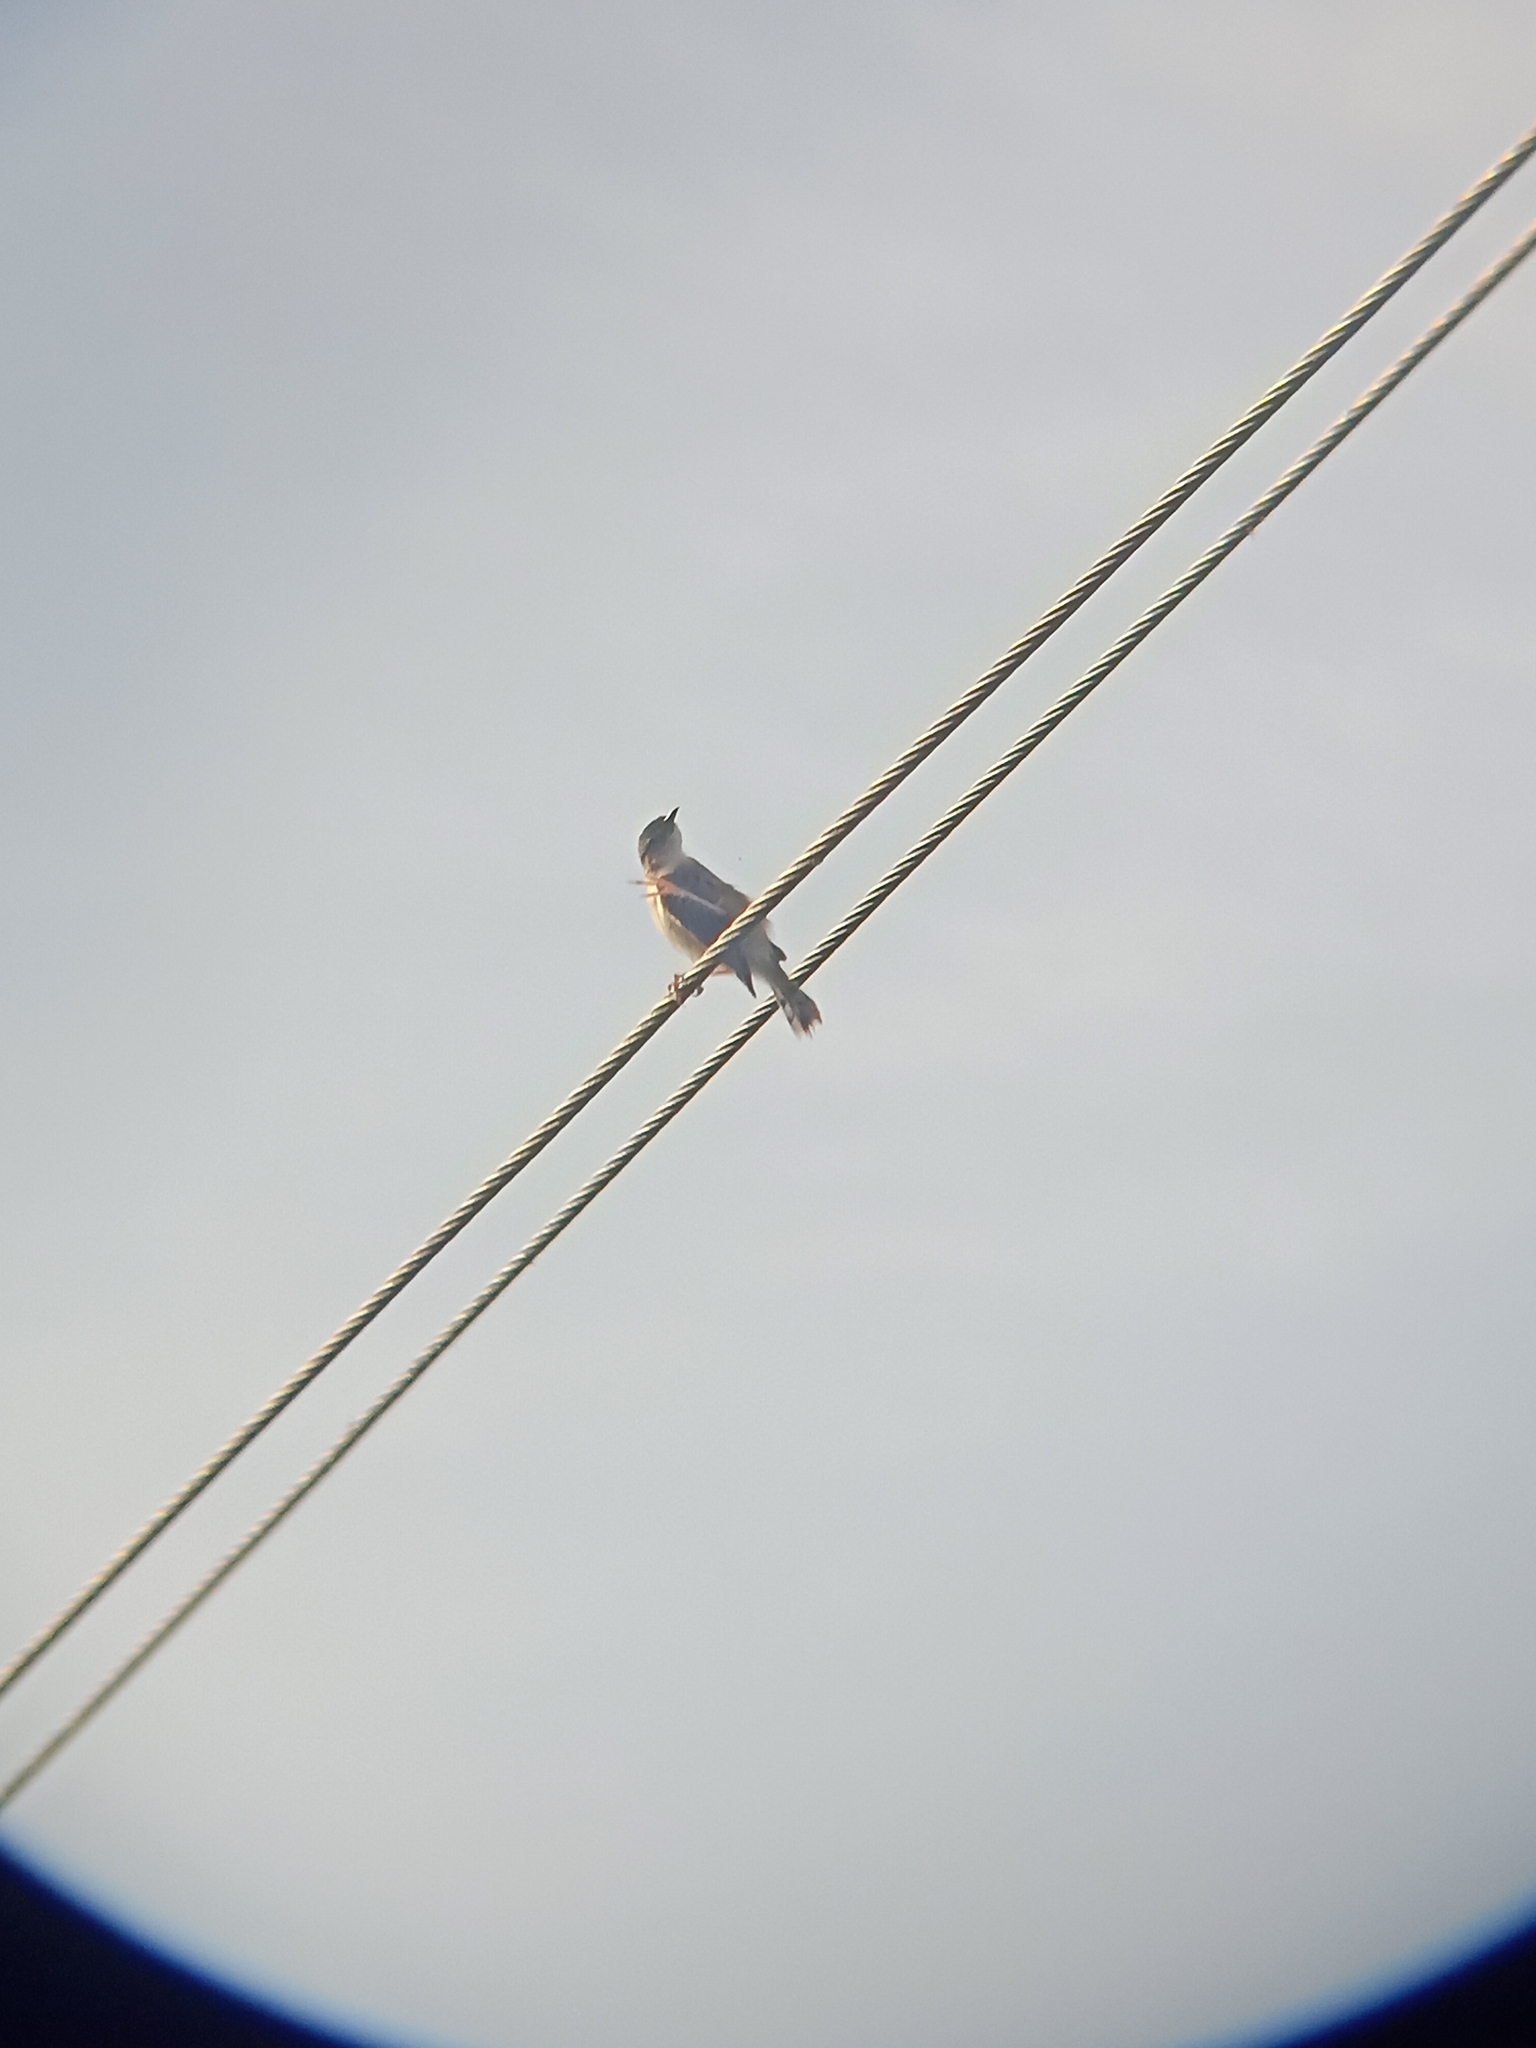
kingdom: Animalia
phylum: Chordata
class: Aves
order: Passeriformes
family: Cisticolidae
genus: Cisticola
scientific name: Cisticola juncidis
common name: Zitting cisticola
